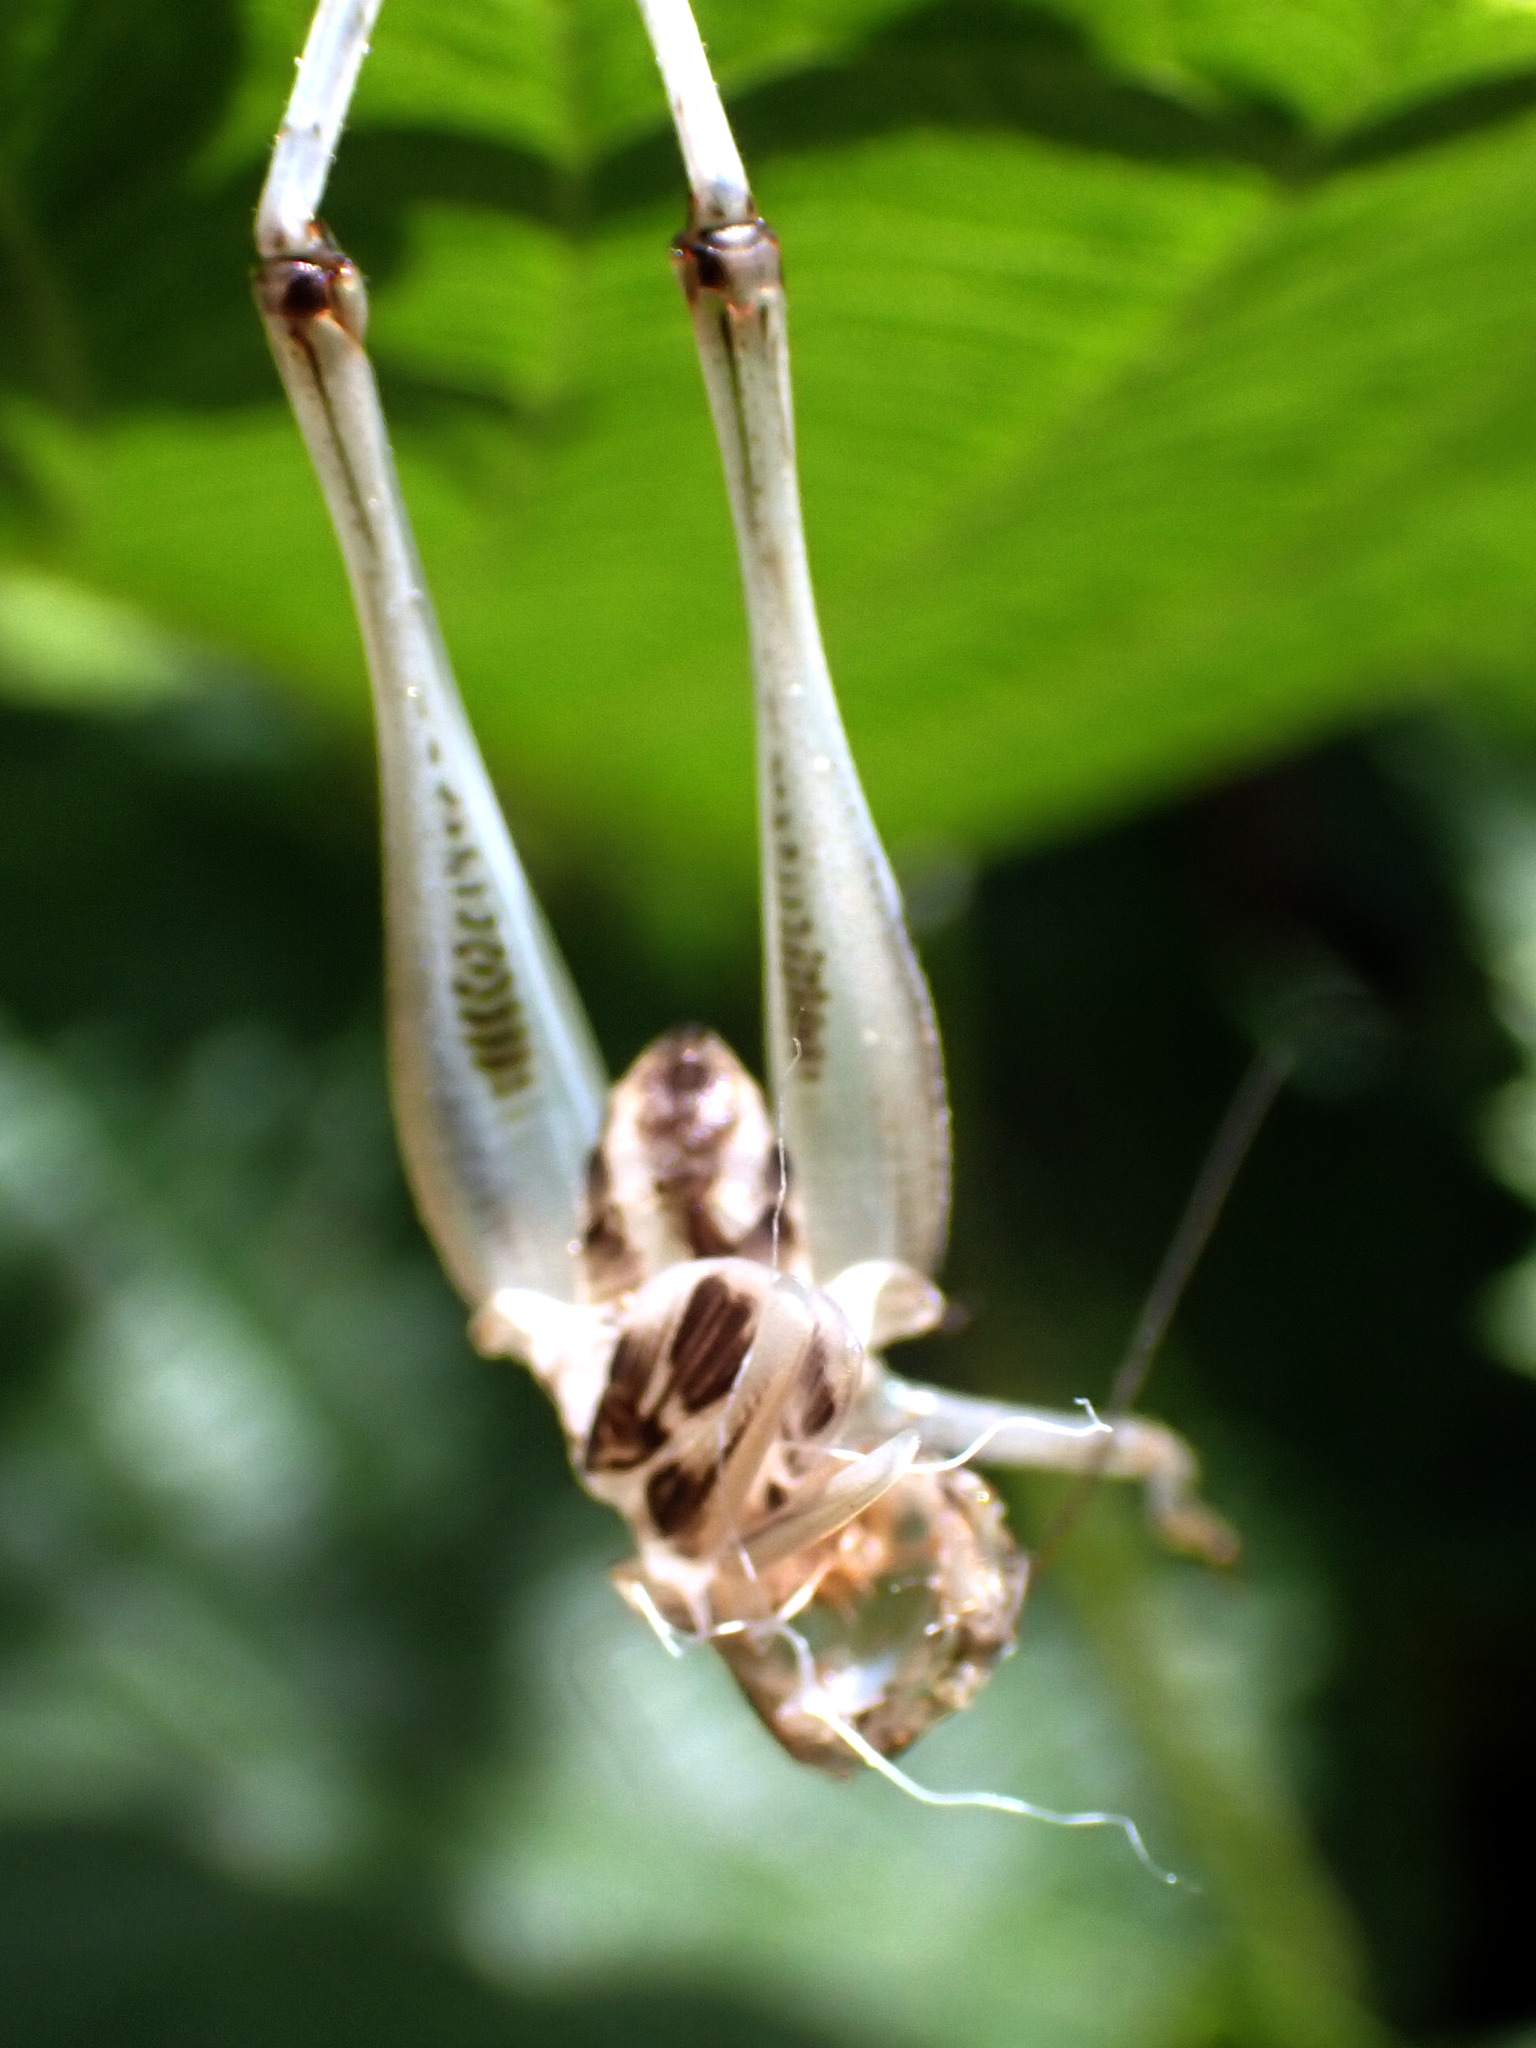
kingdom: Animalia
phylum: Arthropoda
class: Insecta
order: Orthoptera
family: Tettigoniidae
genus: Platycleis
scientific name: Platycleis albopunctata
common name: Grey bush-cricket
